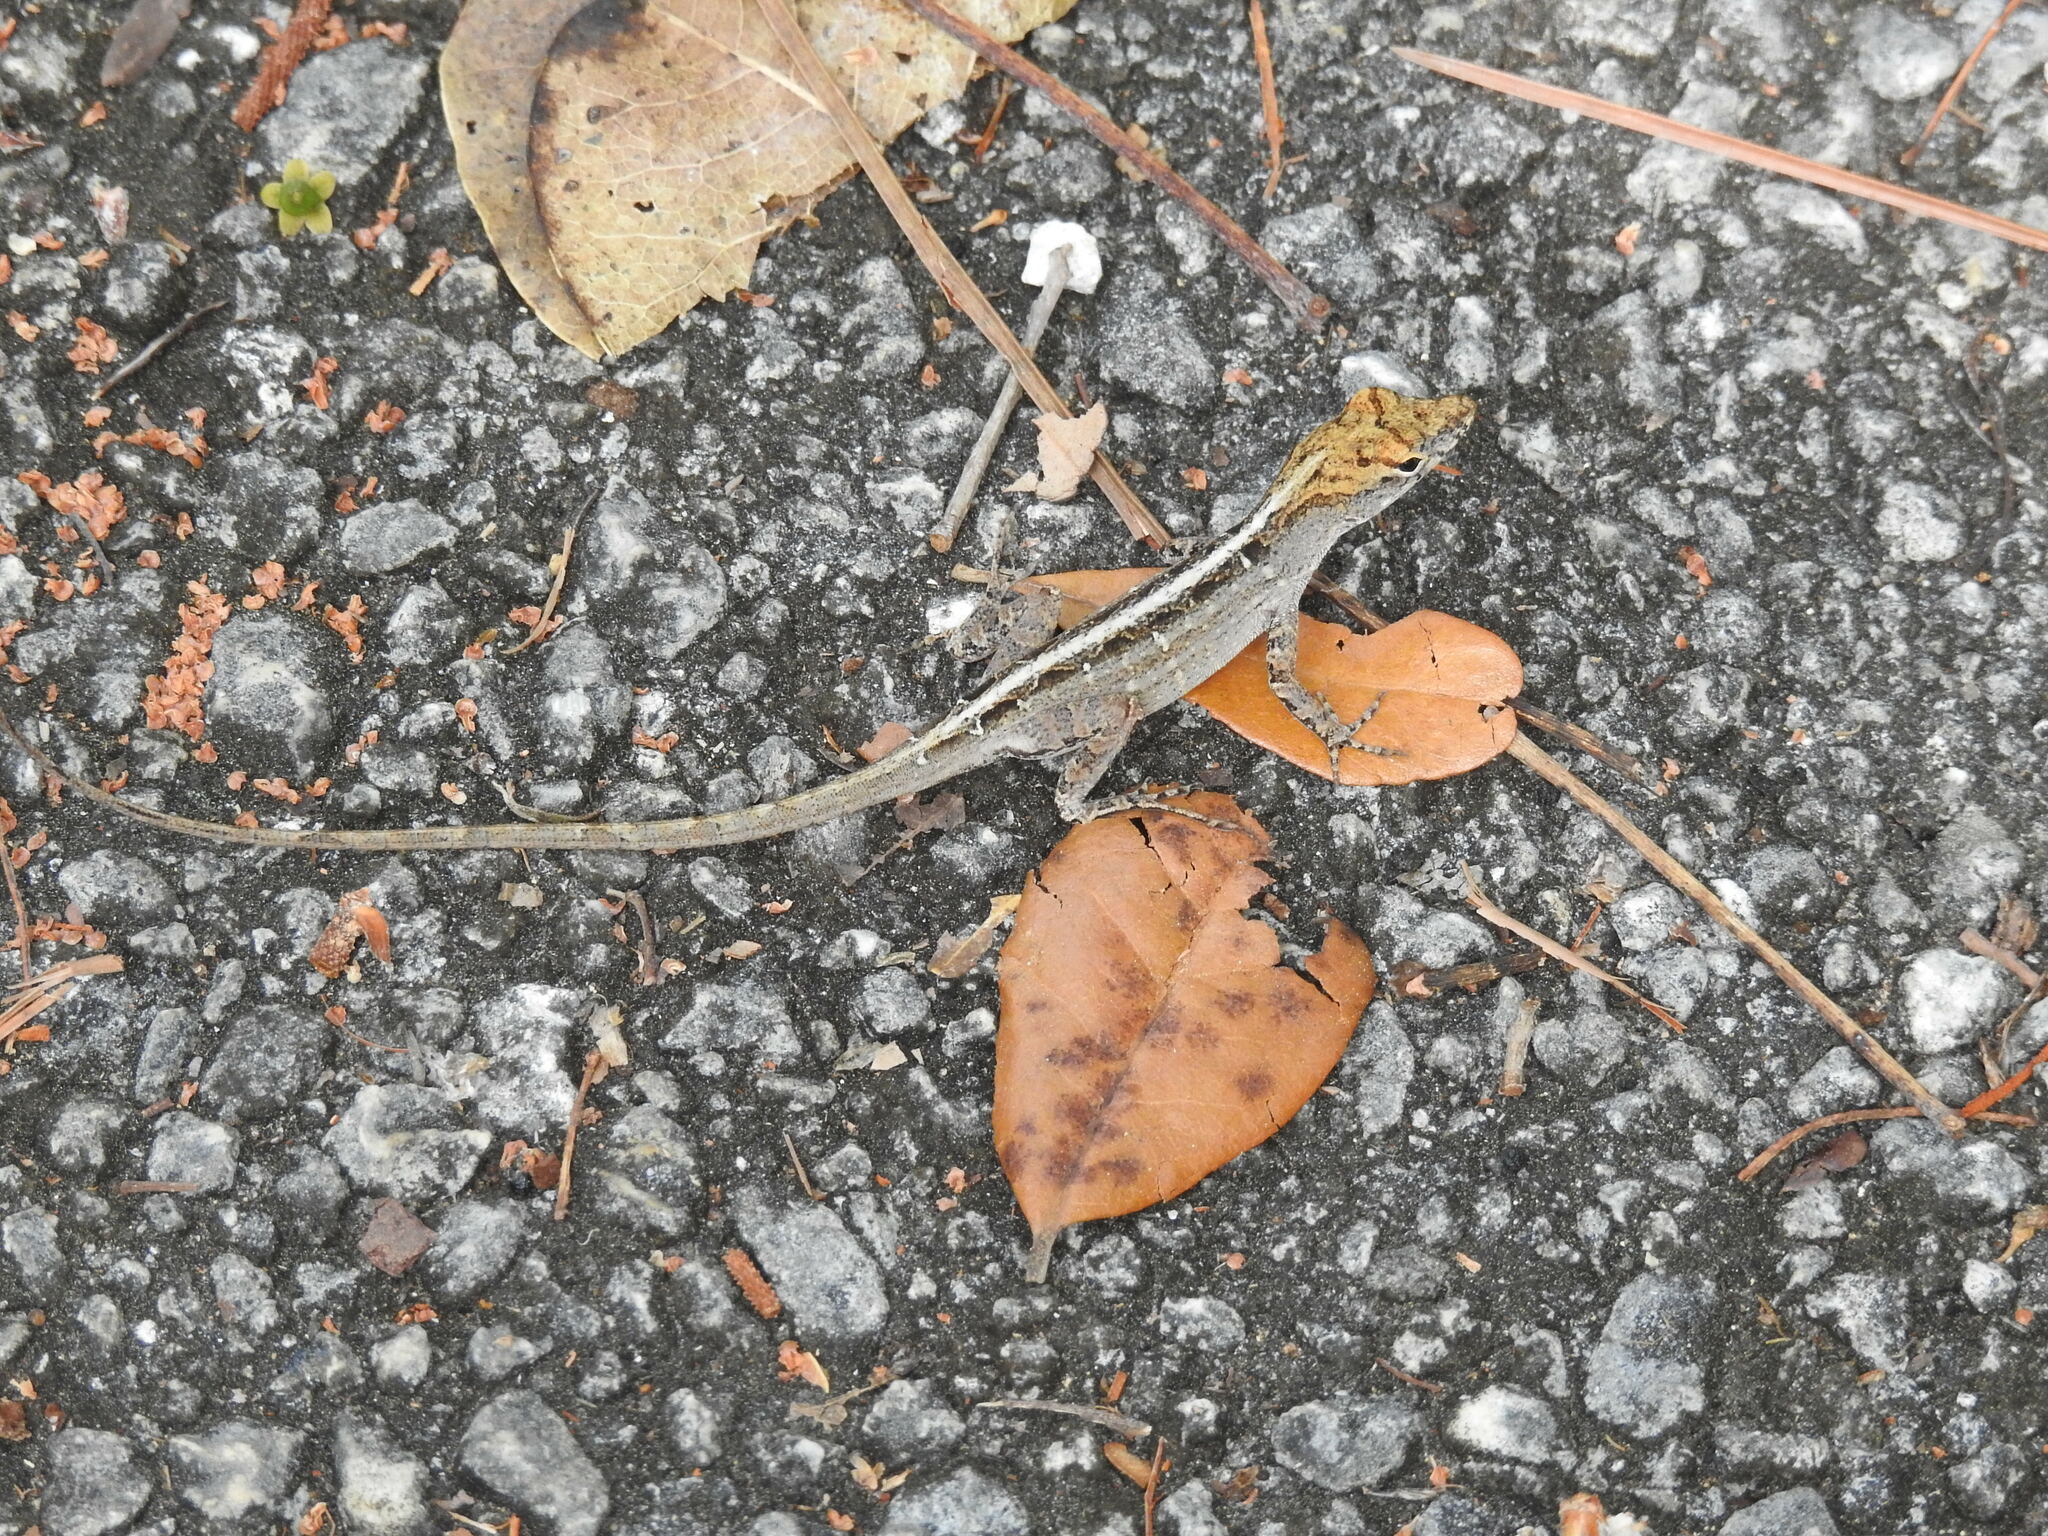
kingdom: Animalia
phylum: Chordata
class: Squamata
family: Dactyloidae
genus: Anolis
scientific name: Anolis sagrei
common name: Brown anole
